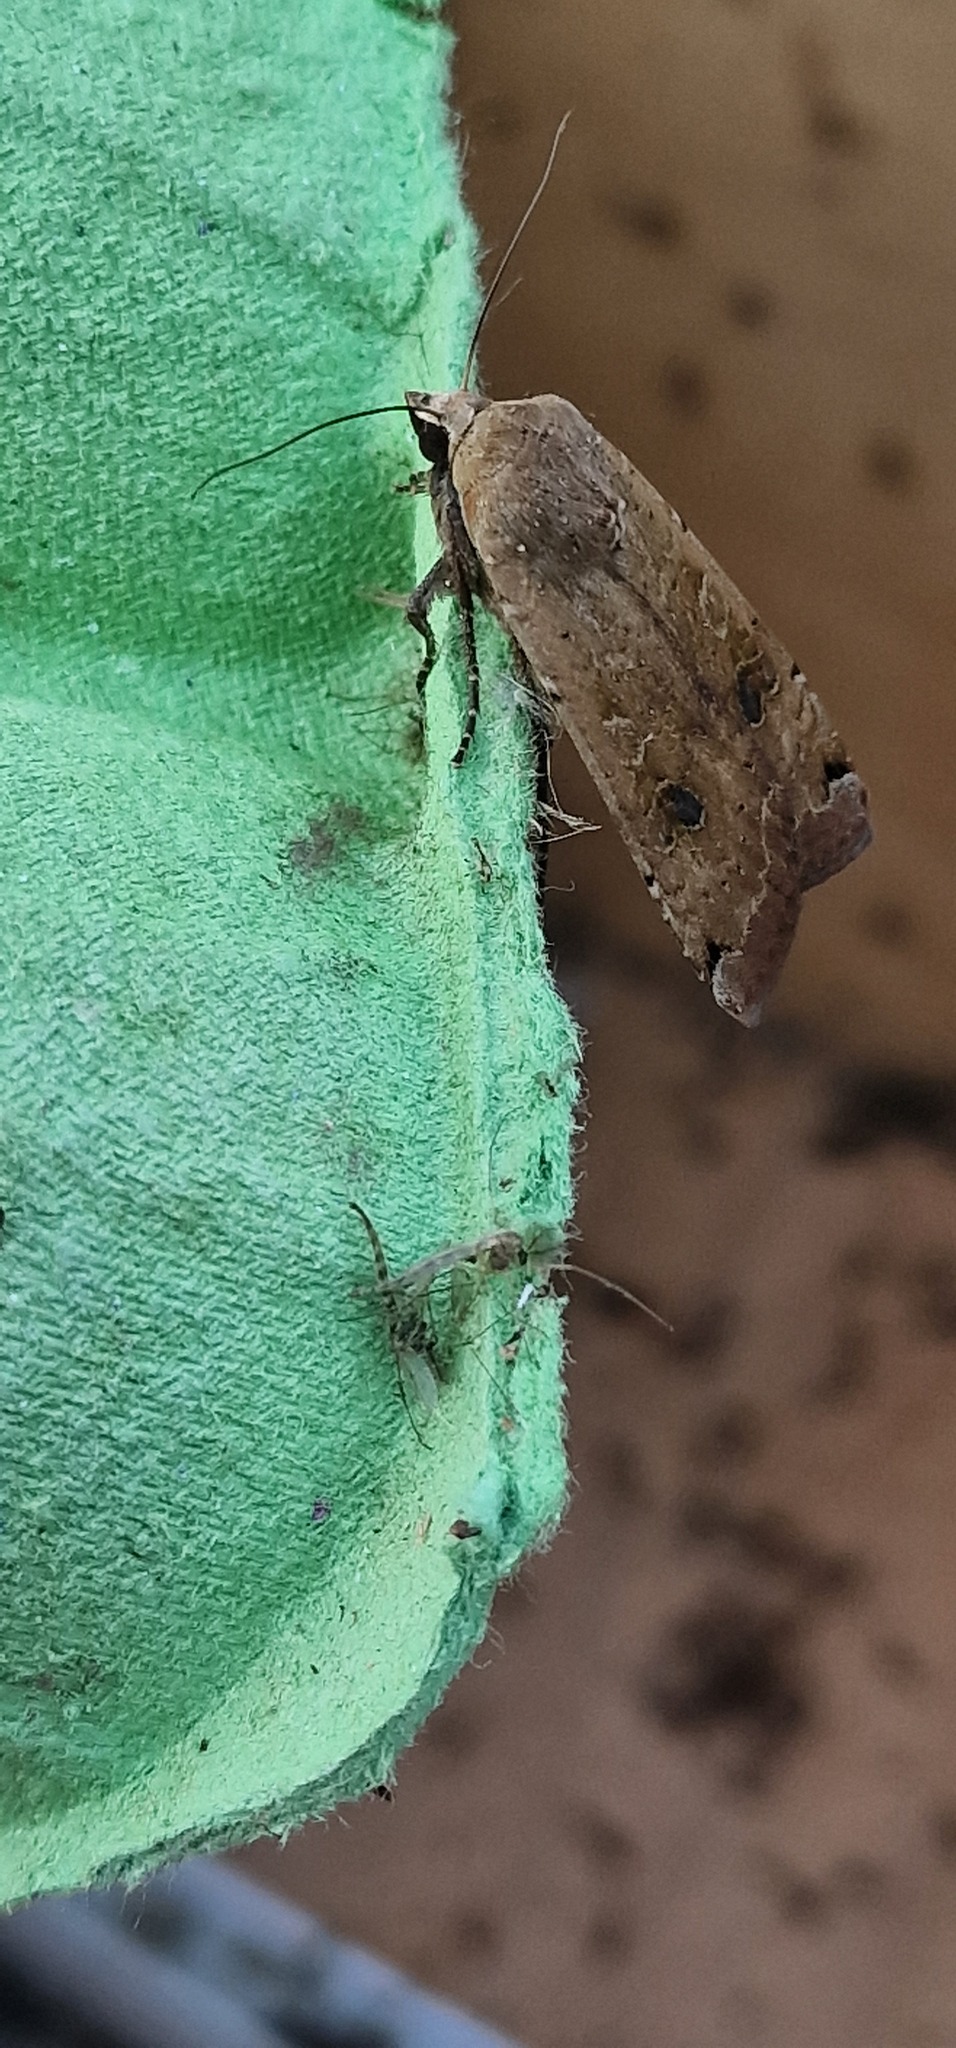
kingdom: Animalia
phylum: Arthropoda
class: Insecta
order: Lepidoptera
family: Noctuidae
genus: Noctua
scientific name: Noctua pronuba
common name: Large yellow underwing
